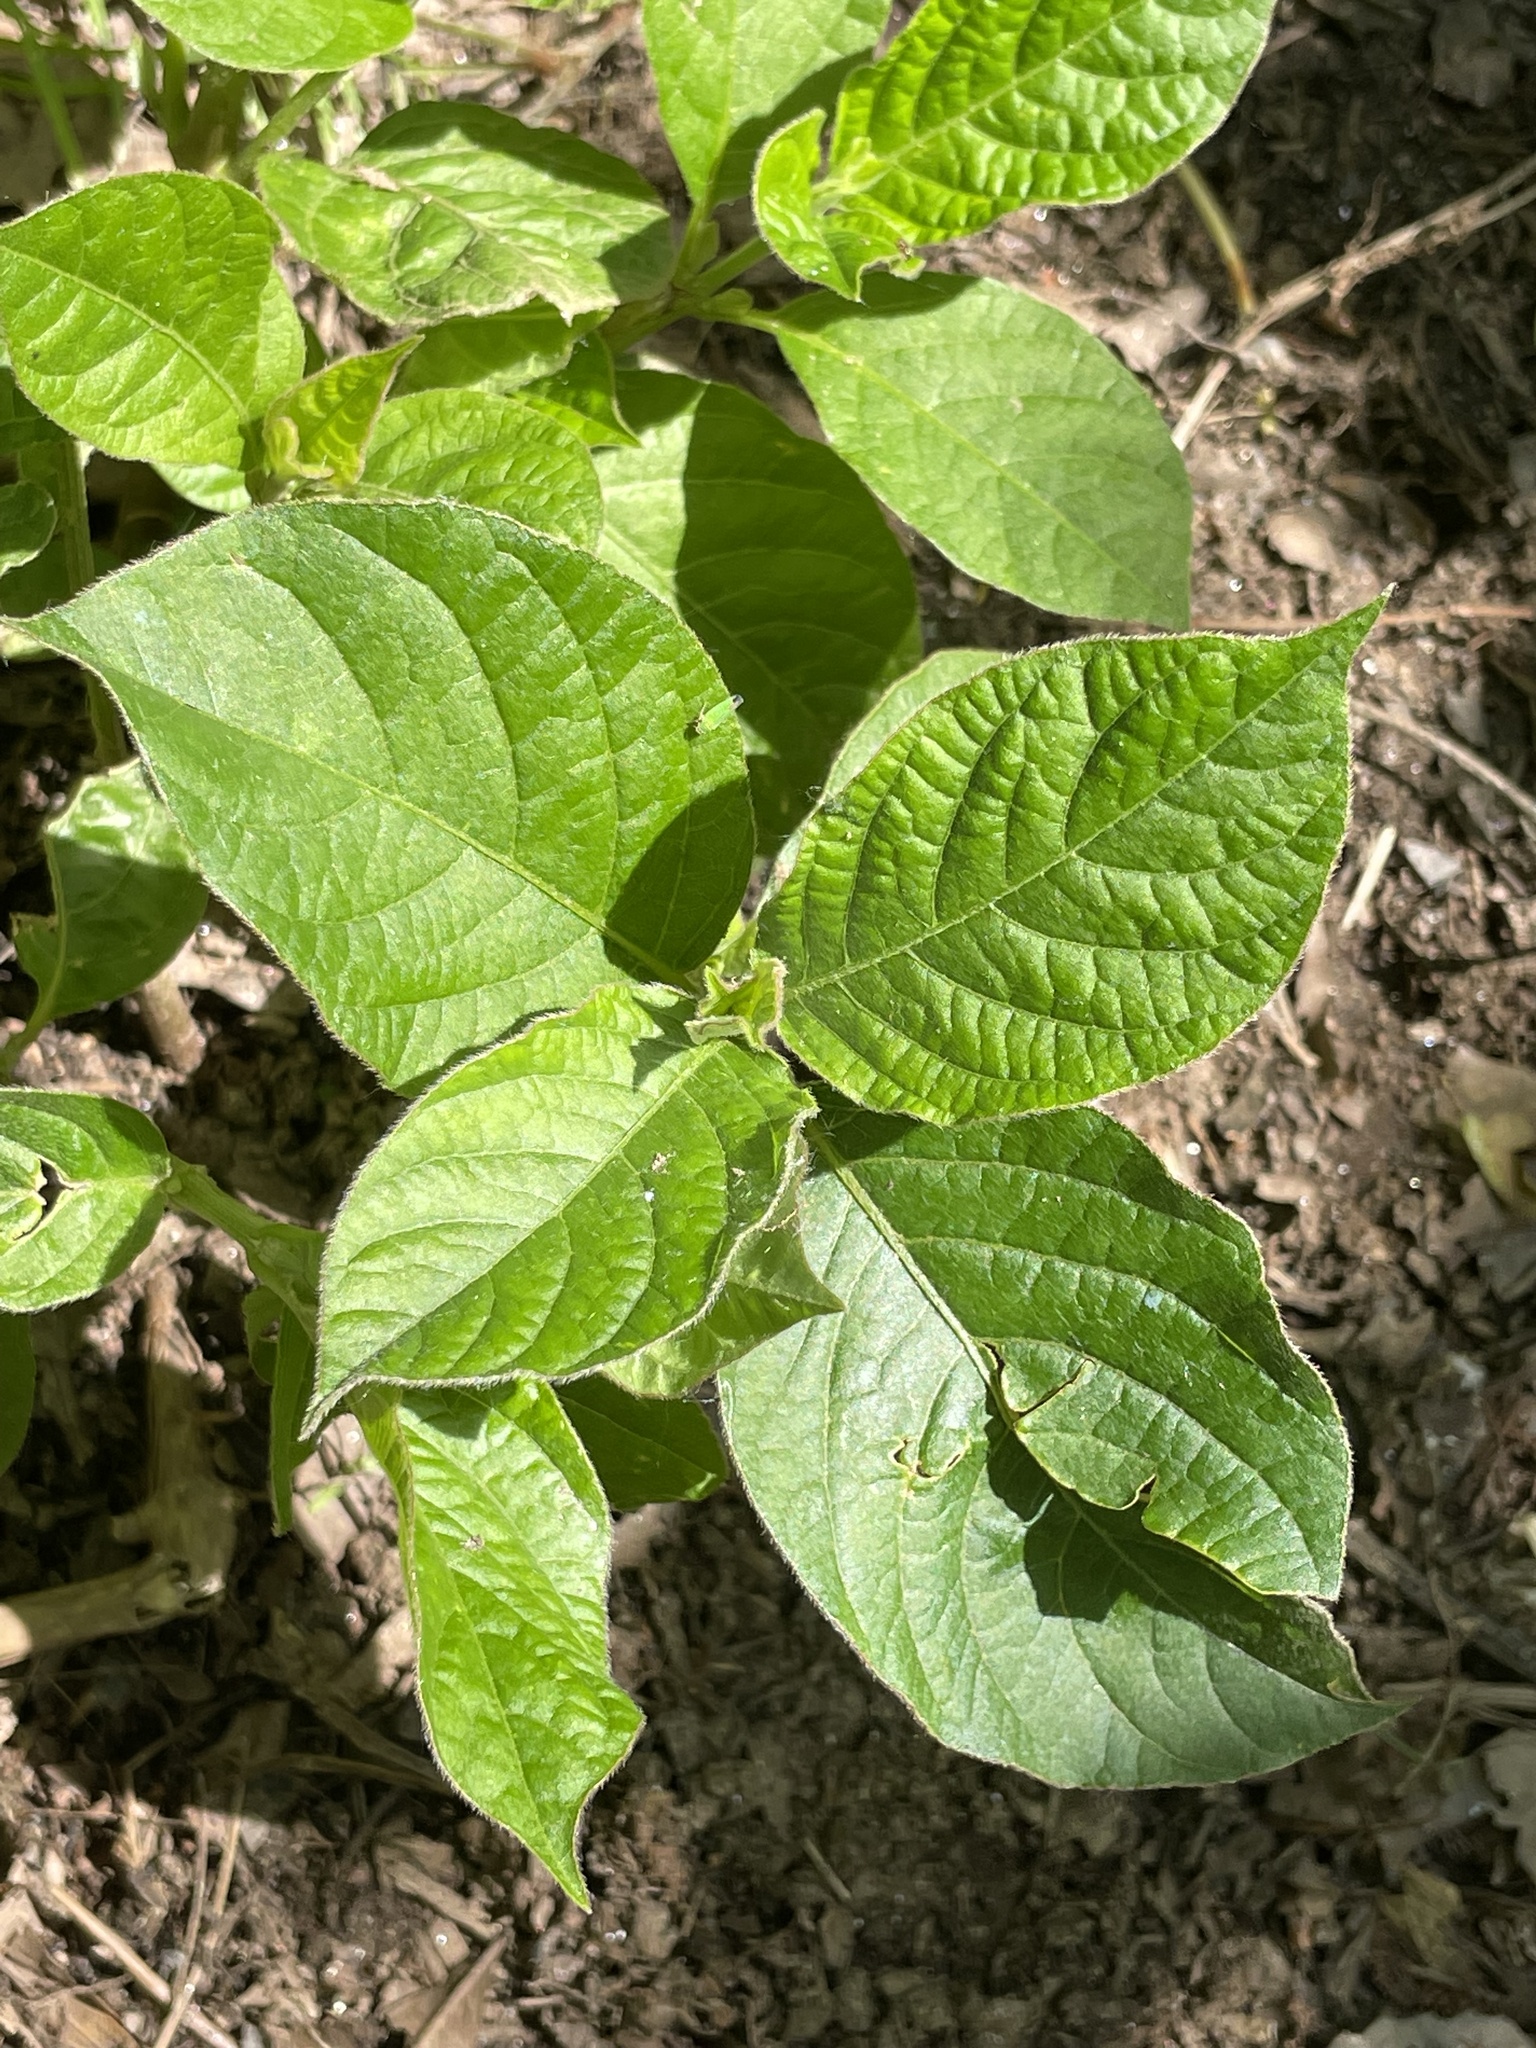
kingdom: Plantae
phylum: Tracheophyta
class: Magnoliopsida
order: Caryophyllales
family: Amaranthaceae
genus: Achyranthes
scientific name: Achyranthes bidentata
